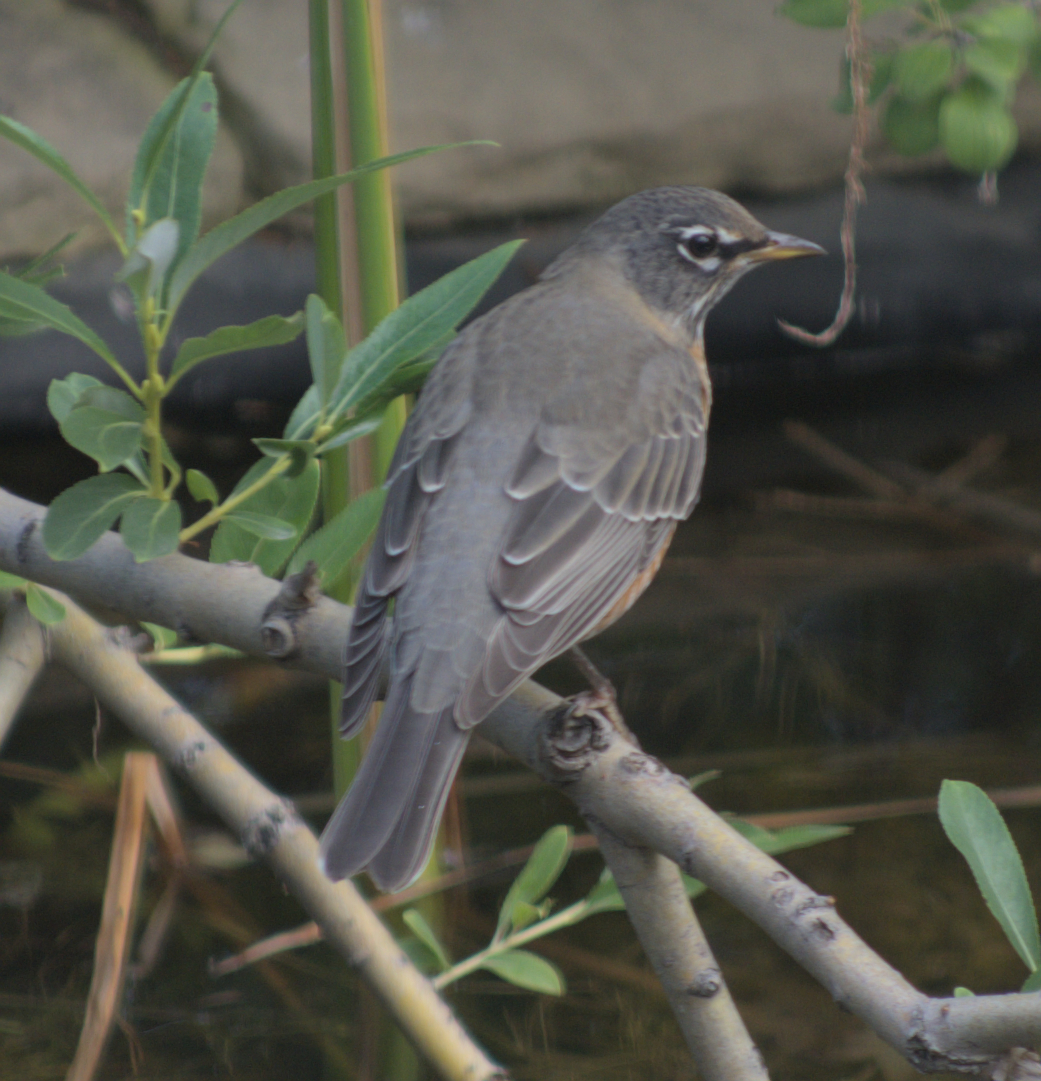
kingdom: Animalia
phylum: Chordata
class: Aves
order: Passeriformes
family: Turdidae
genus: Turdus
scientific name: Turdus migratorius
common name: American robin
